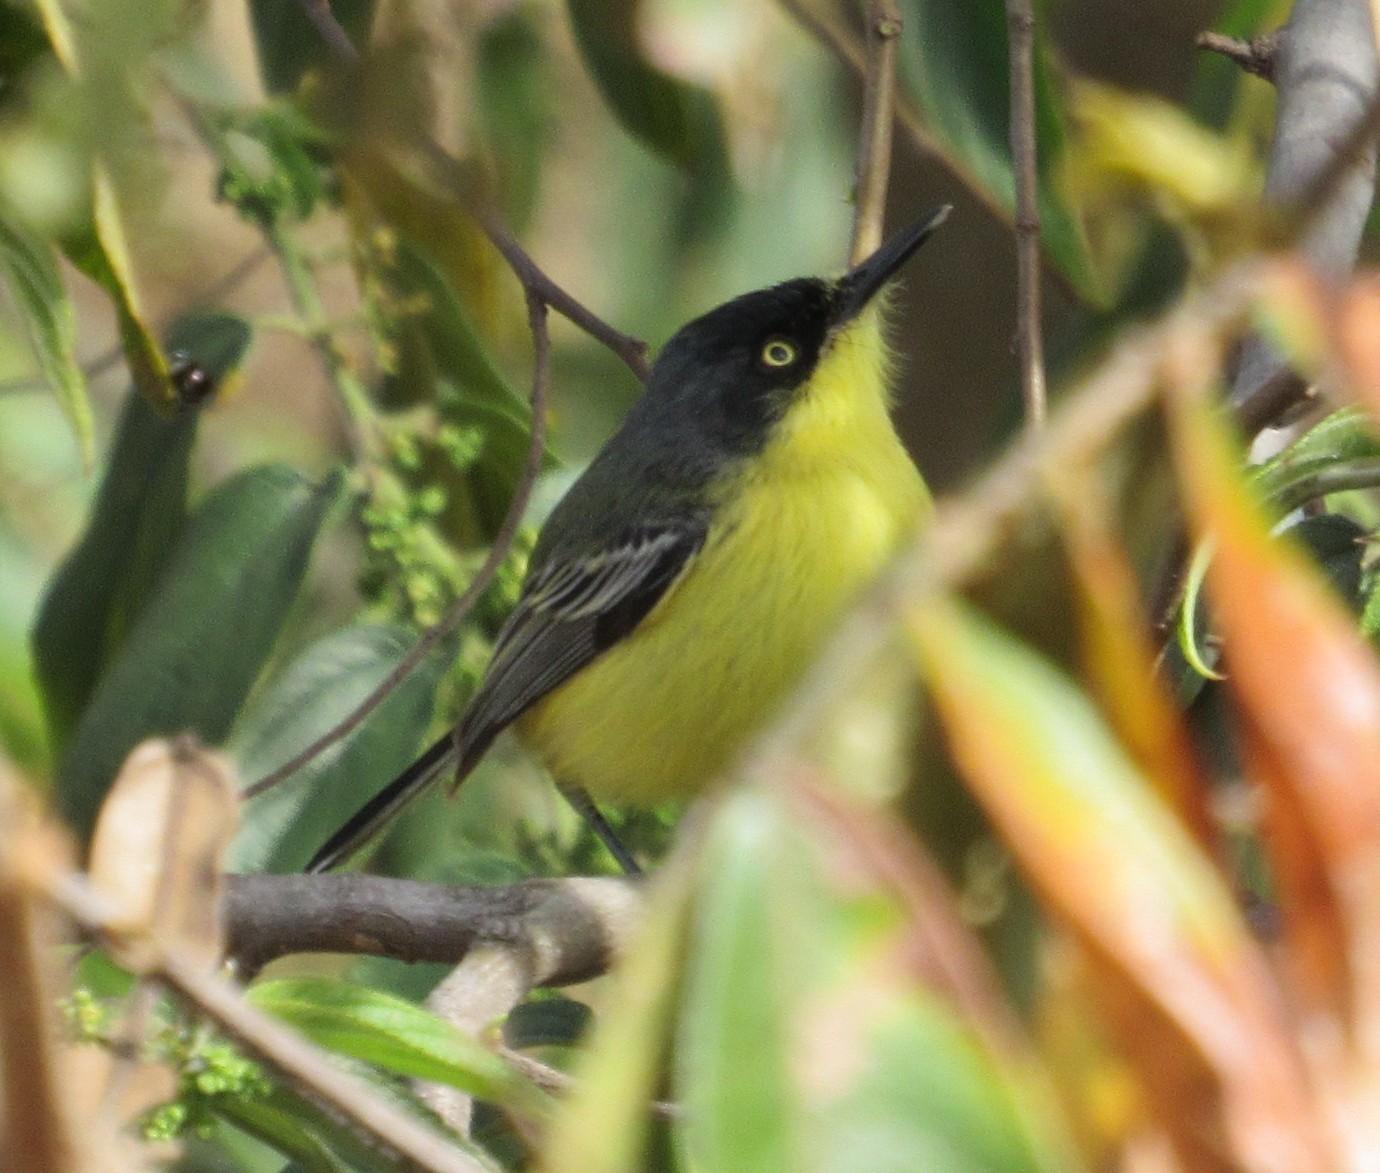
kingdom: Animalia
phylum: Chordata
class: Aves
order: Passeriformes
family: Tyrannidae
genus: Todirostrum
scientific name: Todirostrum cinereum
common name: Common tody-flycatcher
